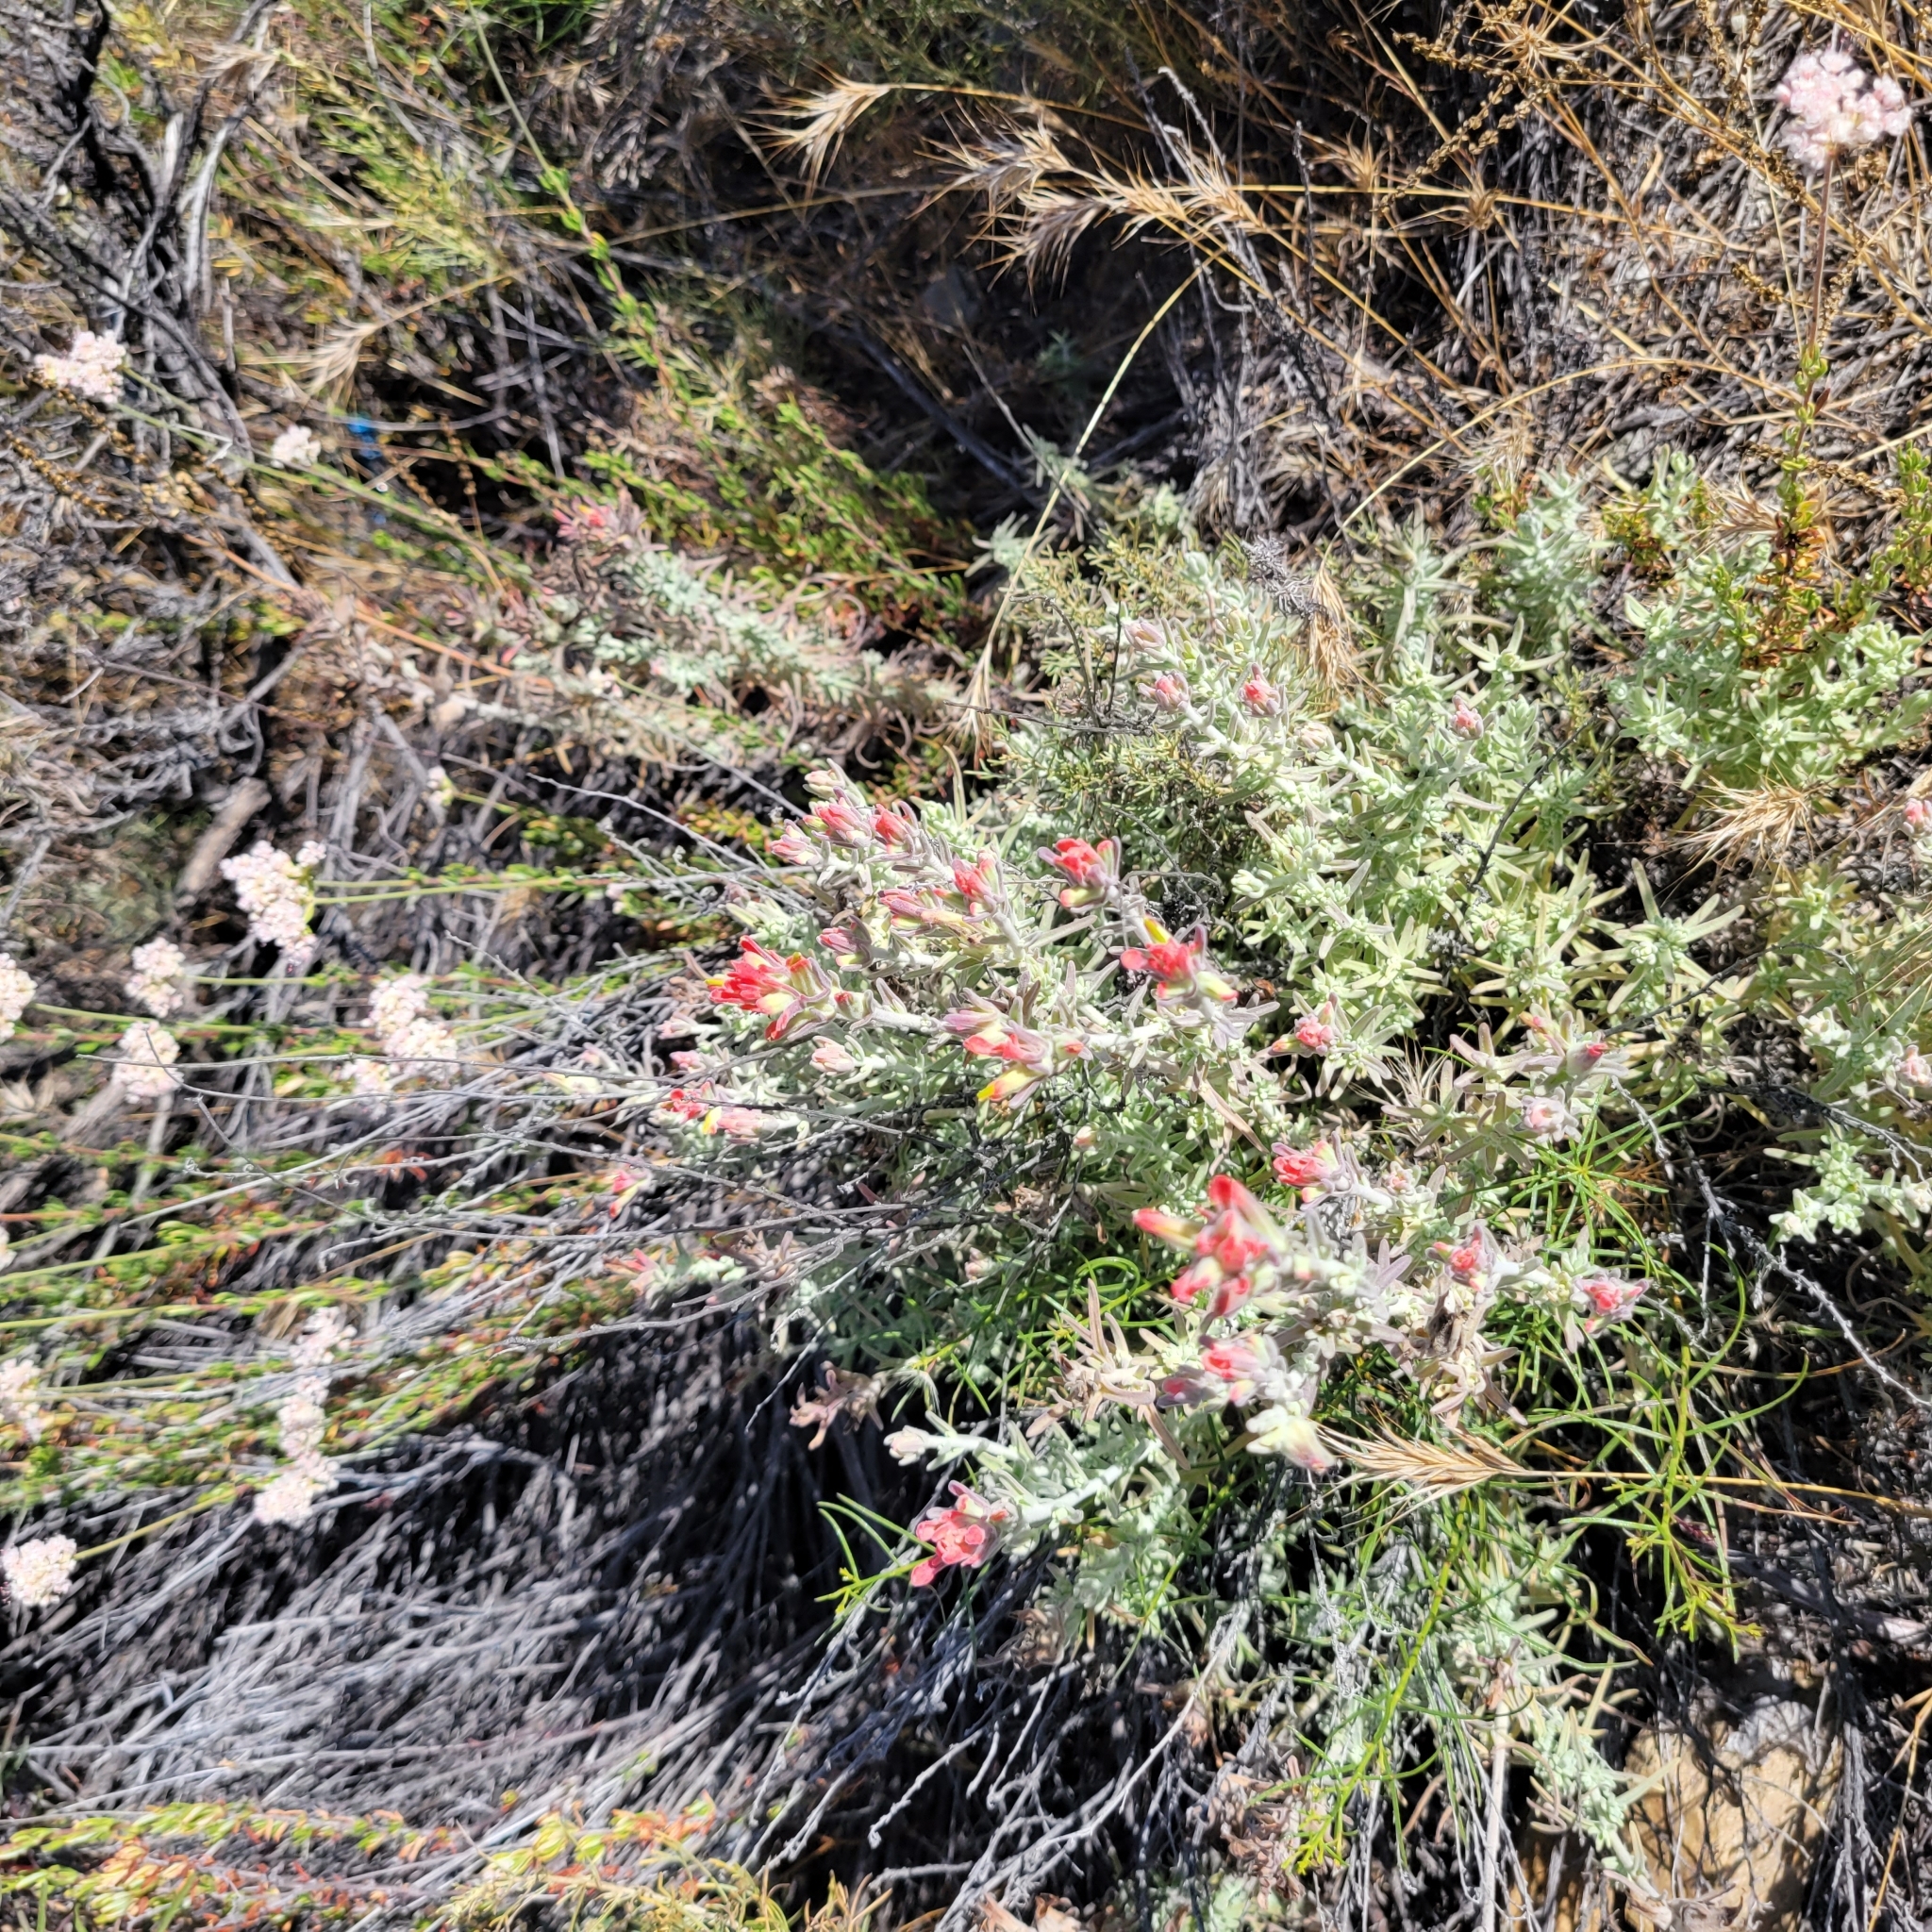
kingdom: Plantae
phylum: Tracheophyta
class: Magnoliopsida
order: Lamiales
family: Orobanchaceae
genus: Castilleja
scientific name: Castilleja foliolosa
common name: Woolly indian paintbrush
